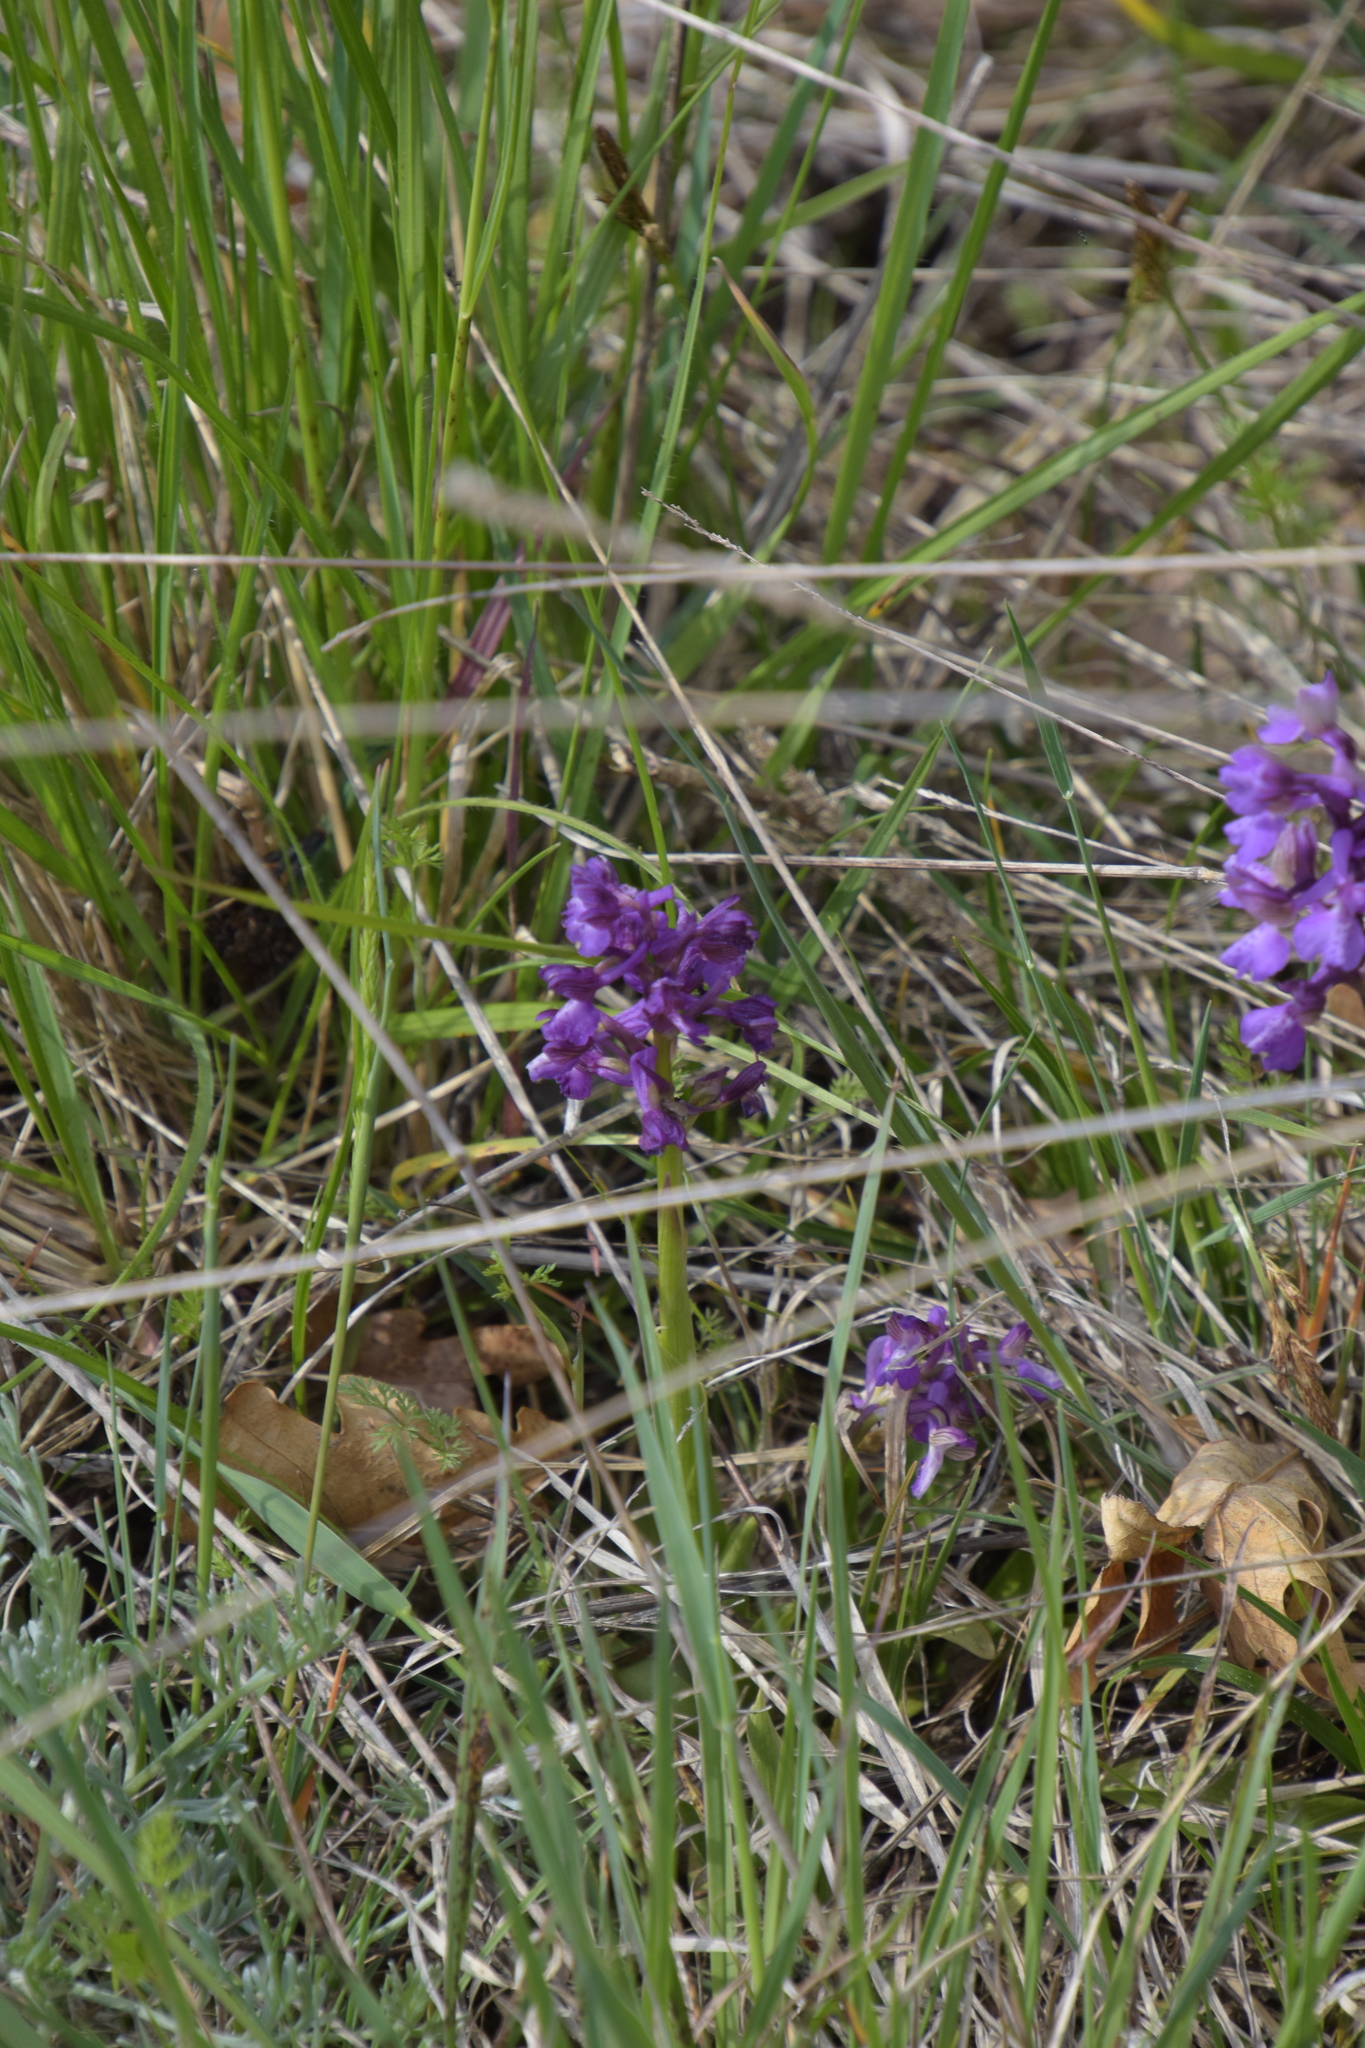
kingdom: Plantae
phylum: Tracheophyta
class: Liliopsida
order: Asparagales
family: Orchidaceae
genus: Anacamptis
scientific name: Anacamptis morio
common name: Green-winged orchid
